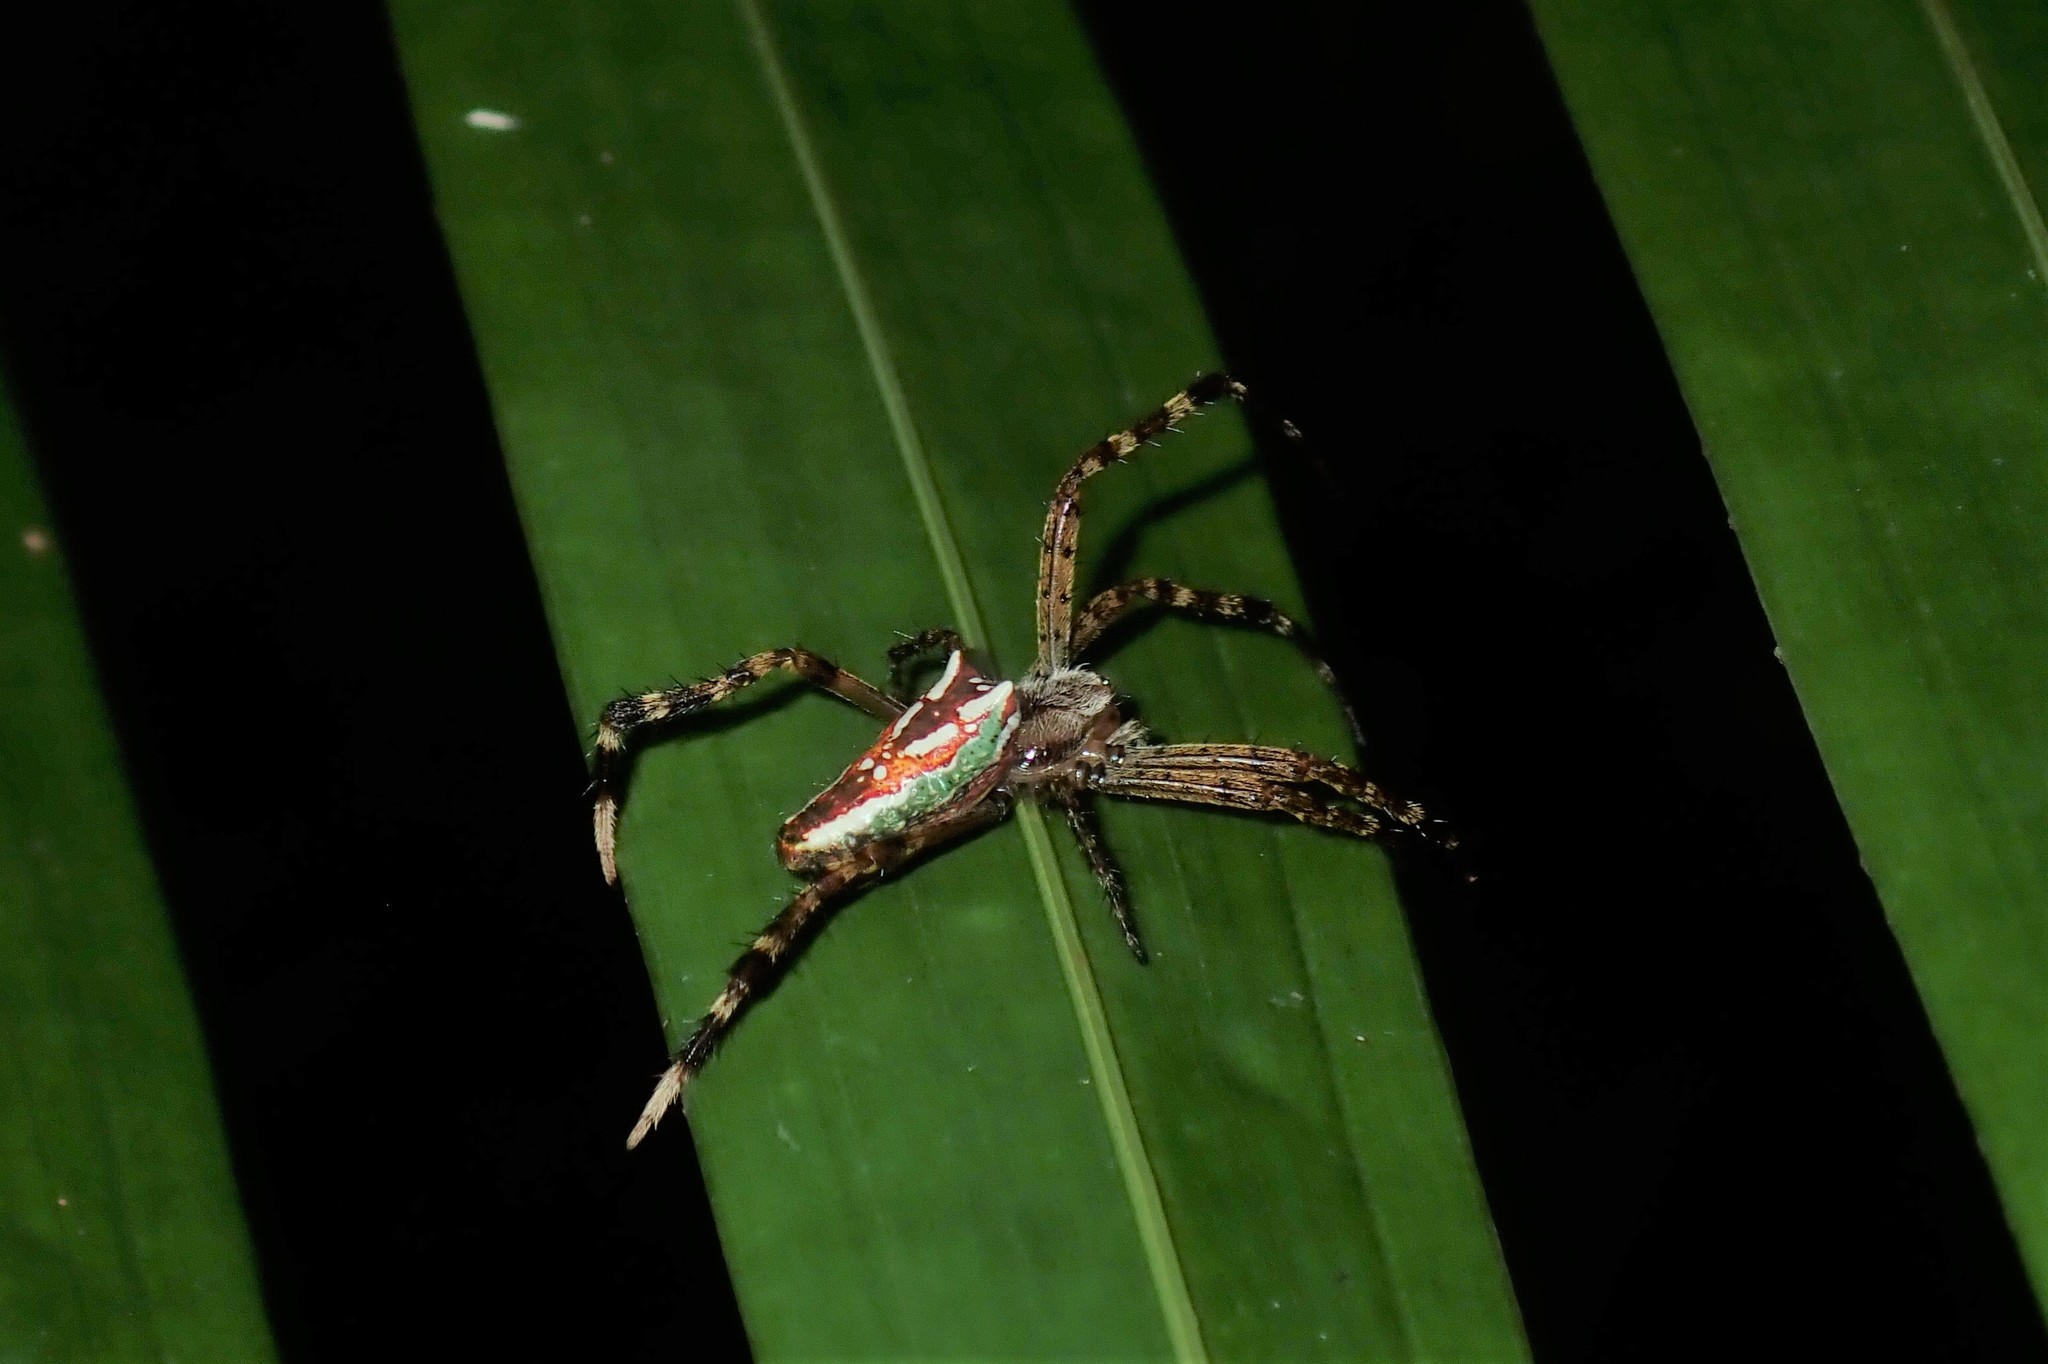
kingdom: Animalia
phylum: Arthropoda
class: Arachnida
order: Araneae
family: Araneidae
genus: Plebs
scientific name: Plebs bradleyi
